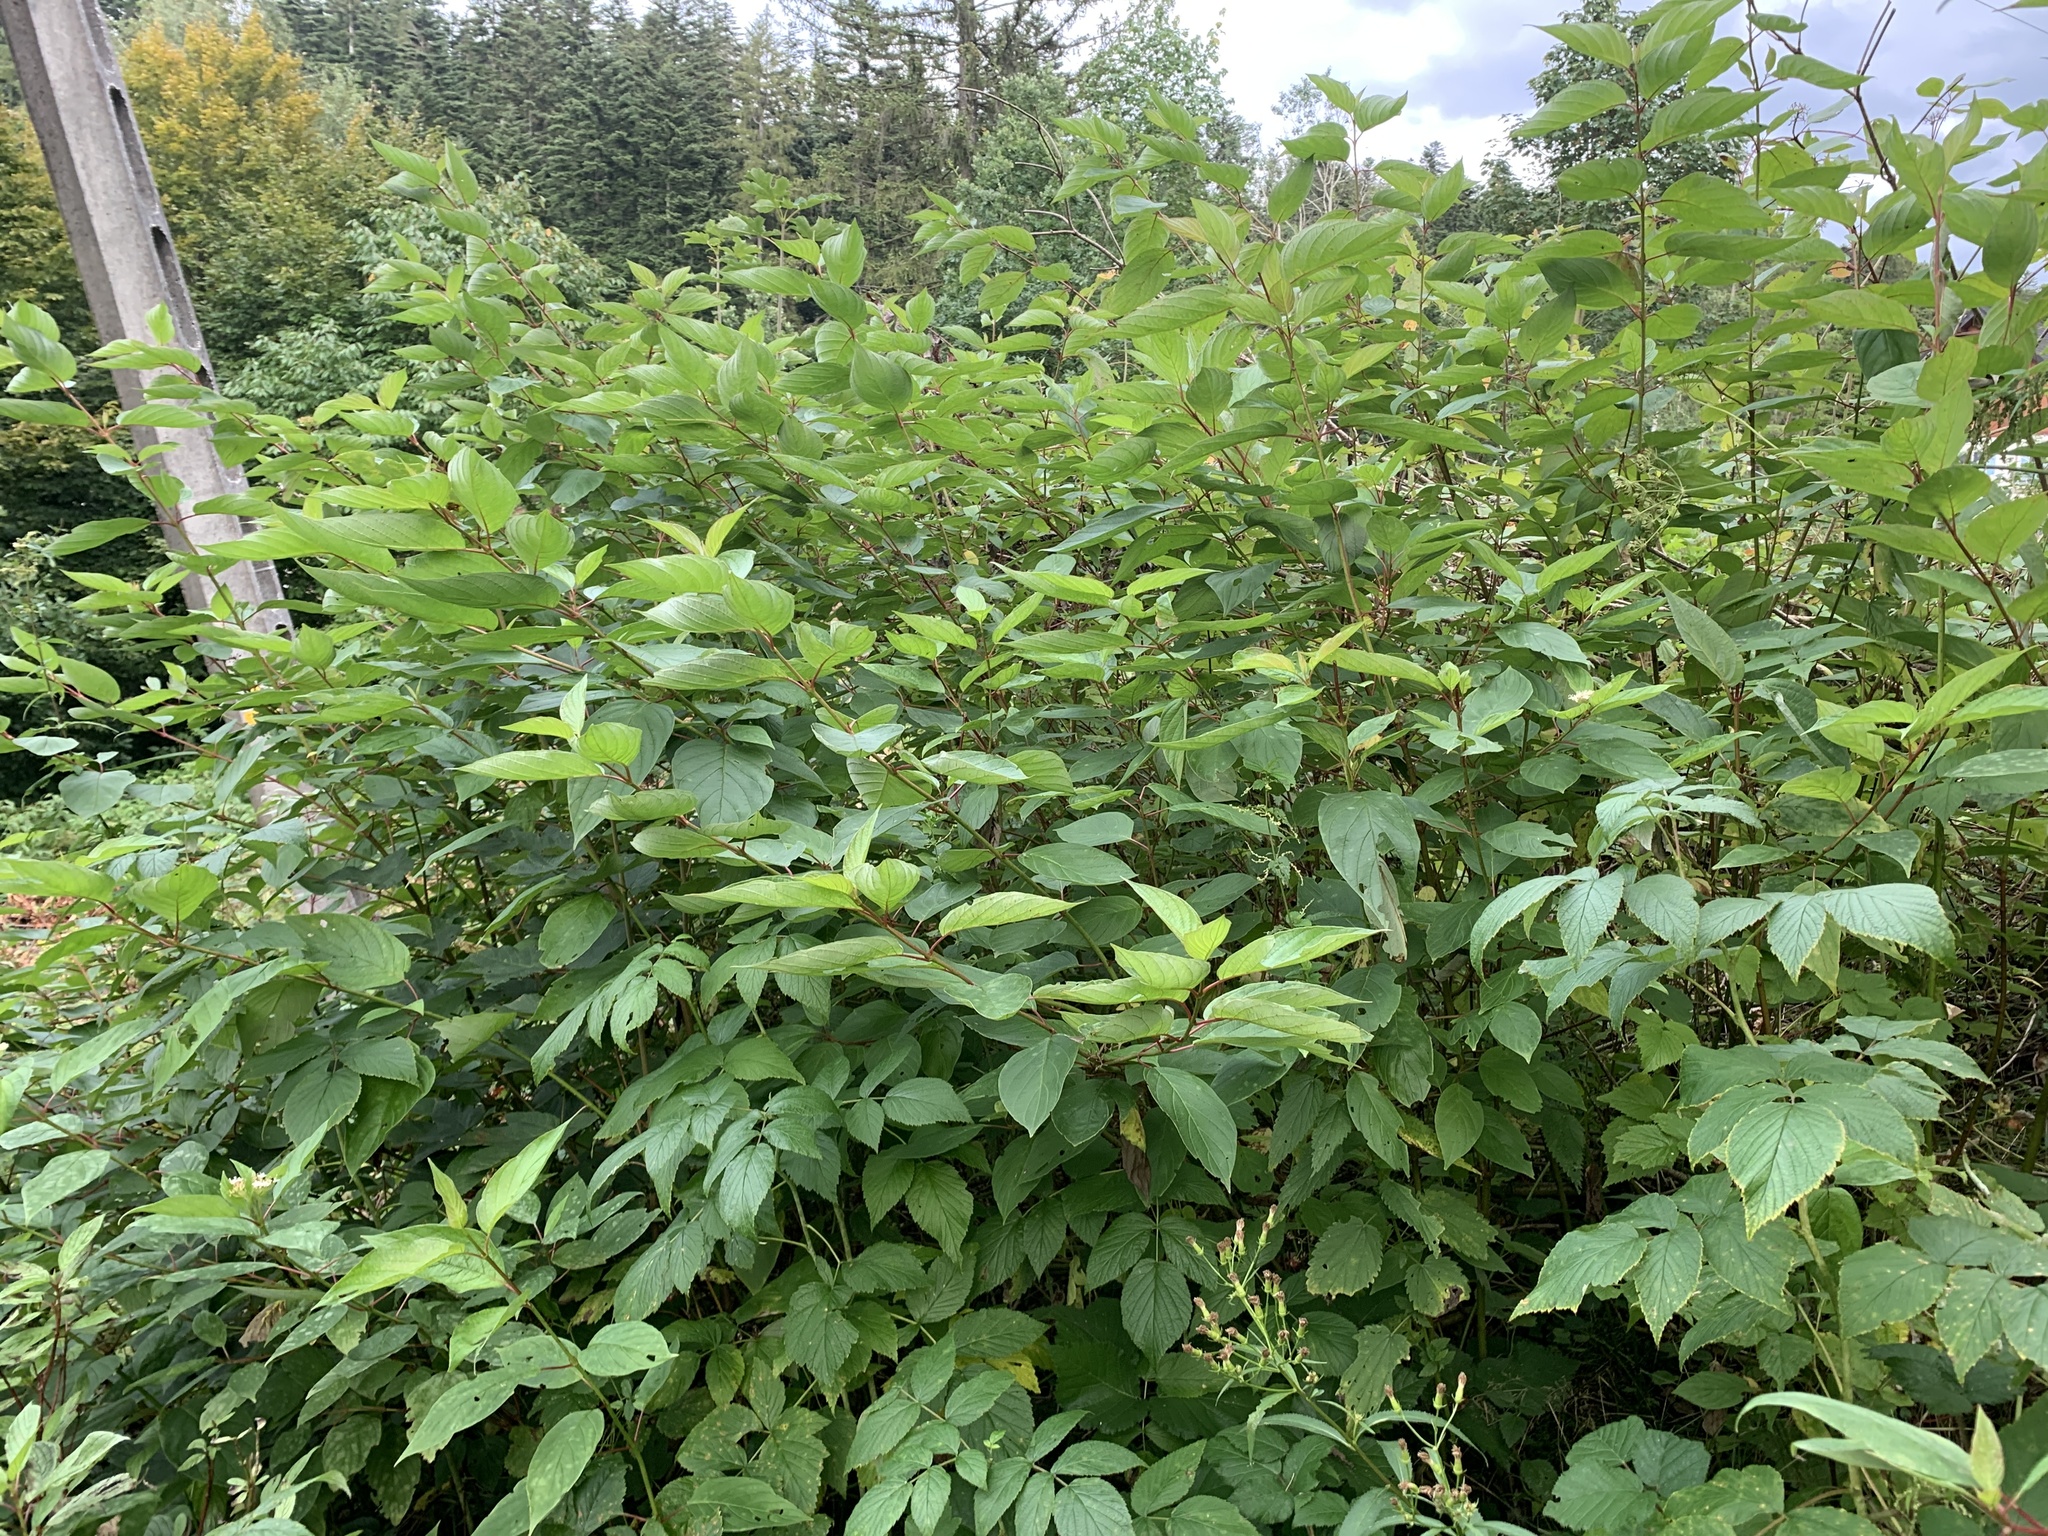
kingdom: Plantae
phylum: Tracheophyta
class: Magnoliopsida
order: Cornales
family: Cornaceae
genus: Cornus
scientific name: Cornus sanguinea
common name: Dogwood
